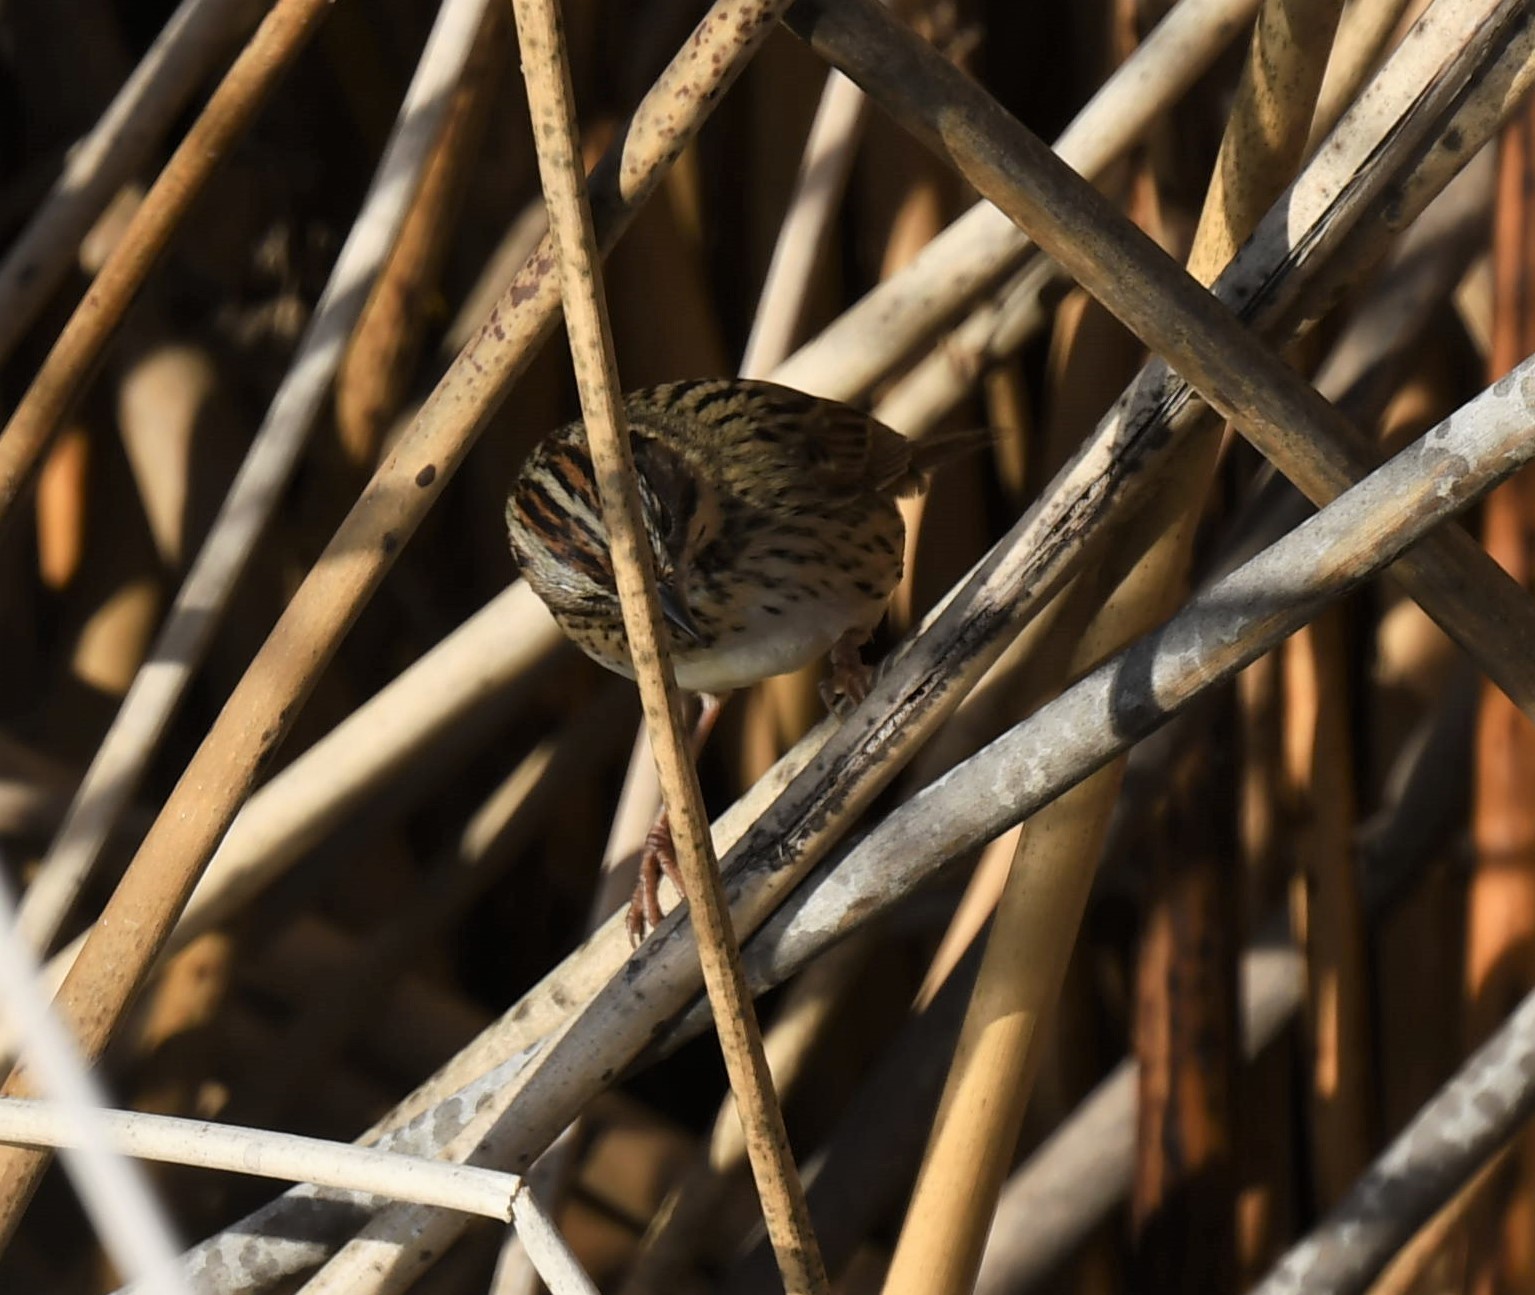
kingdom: Animalia
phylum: Chordata
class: Aves
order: Passeriformes
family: Passerellidae
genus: Melospiza
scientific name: Melospiza lincolnii
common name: Lincoln's sparrow
